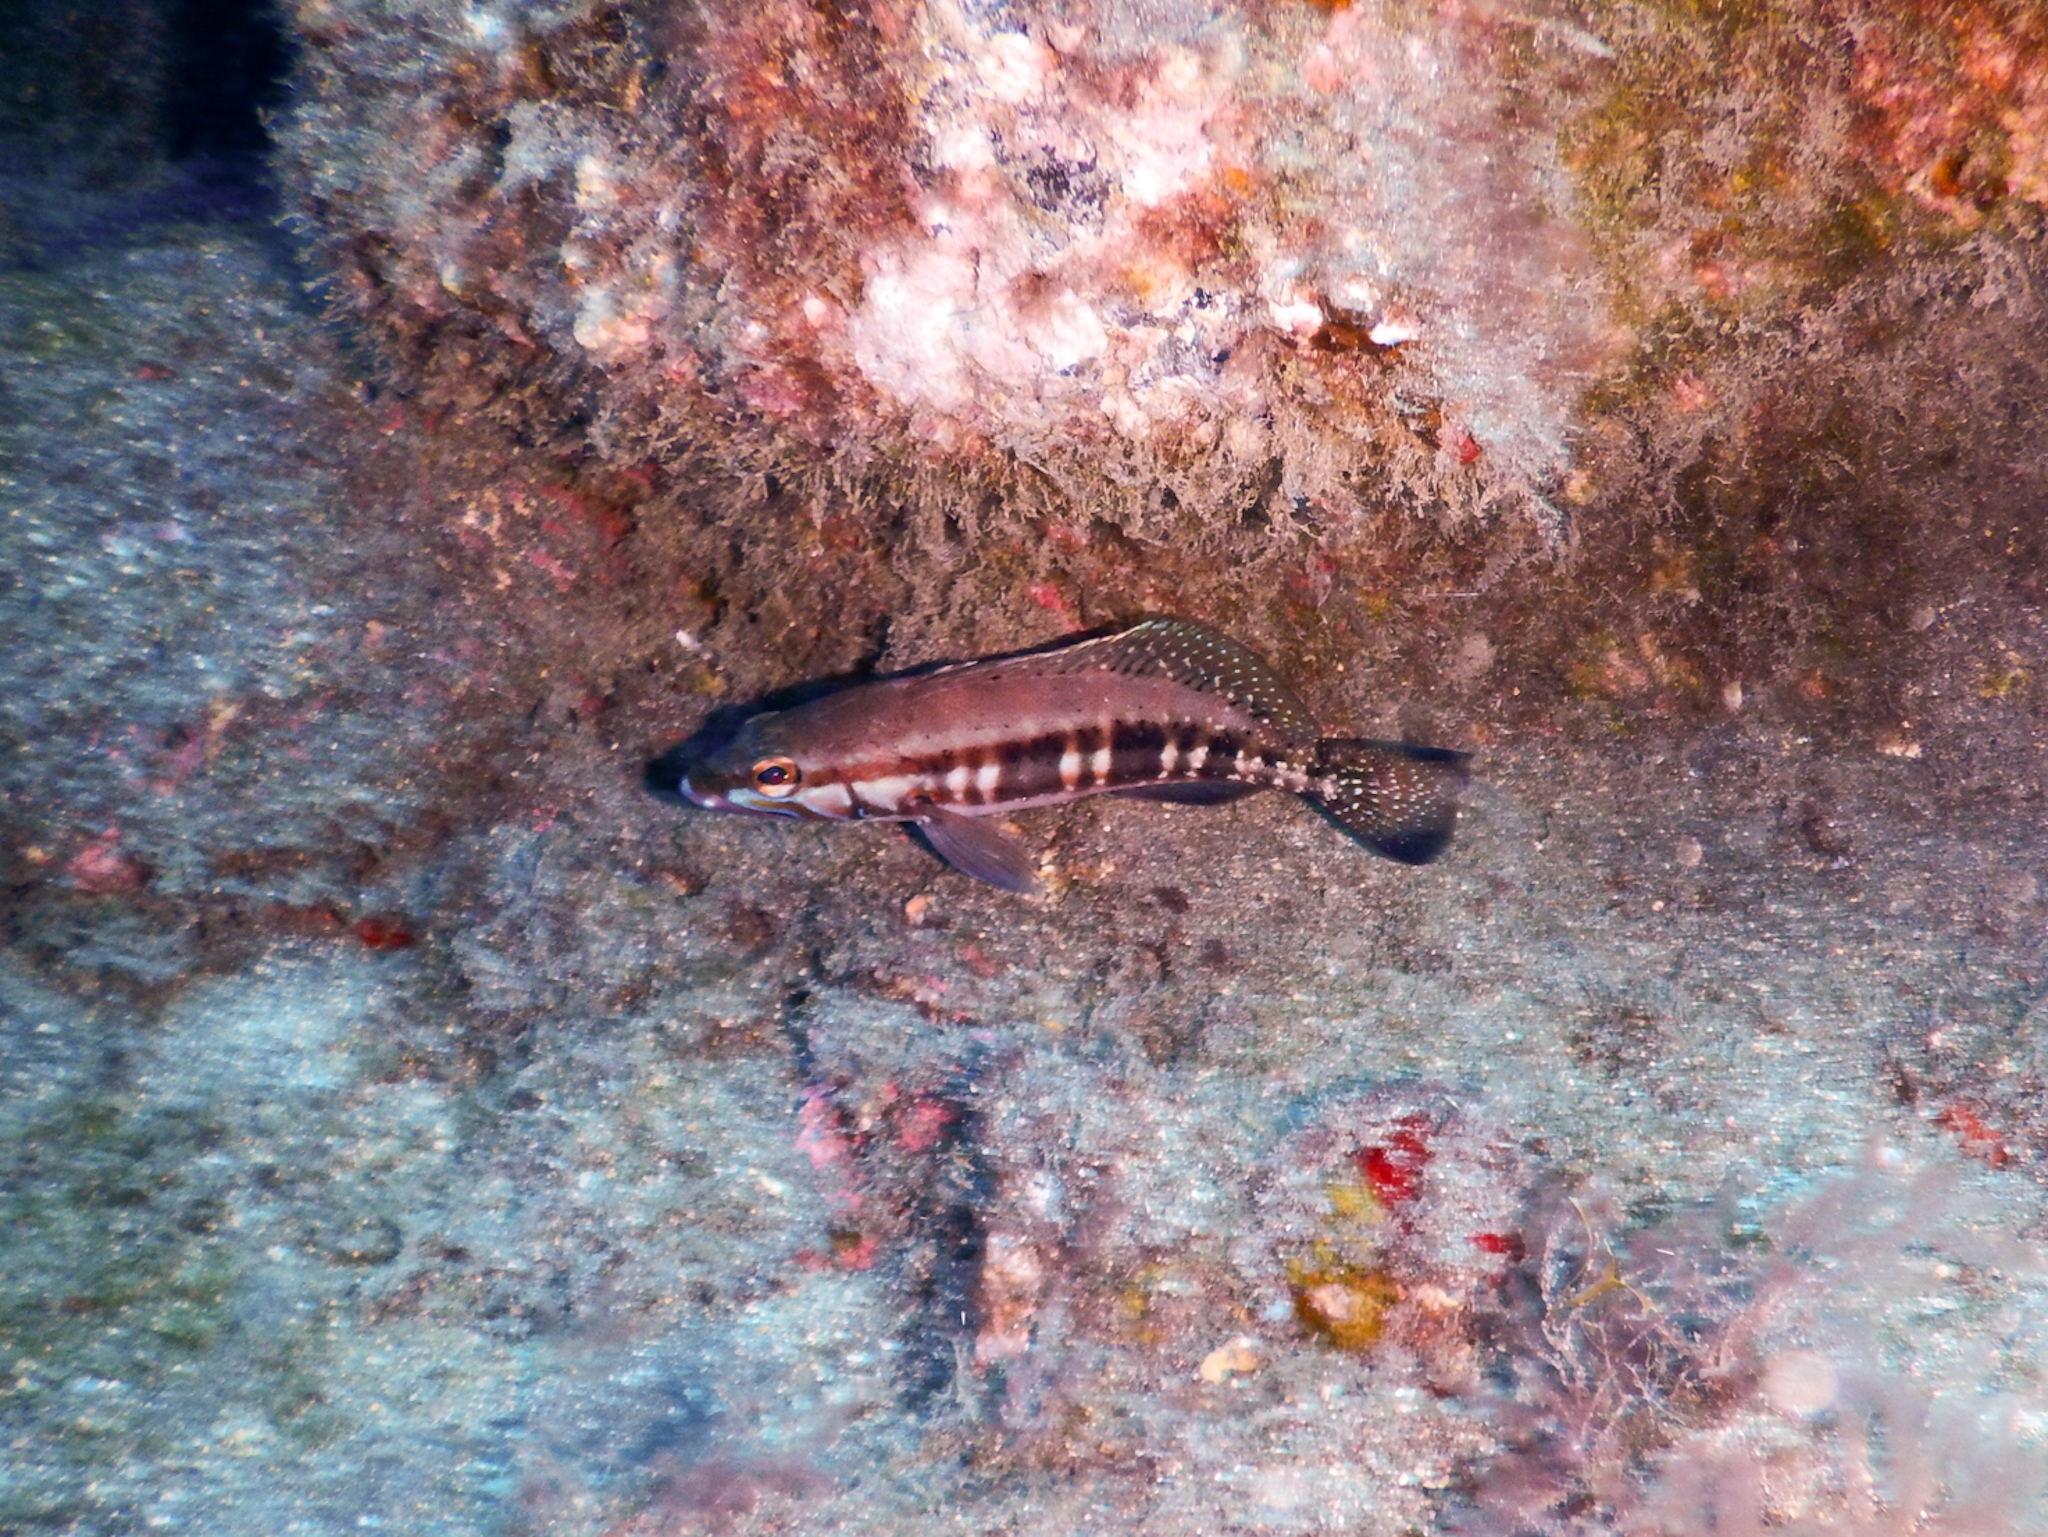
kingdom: Animalia
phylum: Chordata
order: Perciformes
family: Serranidae
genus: Serranus
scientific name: Serranus atricauda
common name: Blacktail comber
